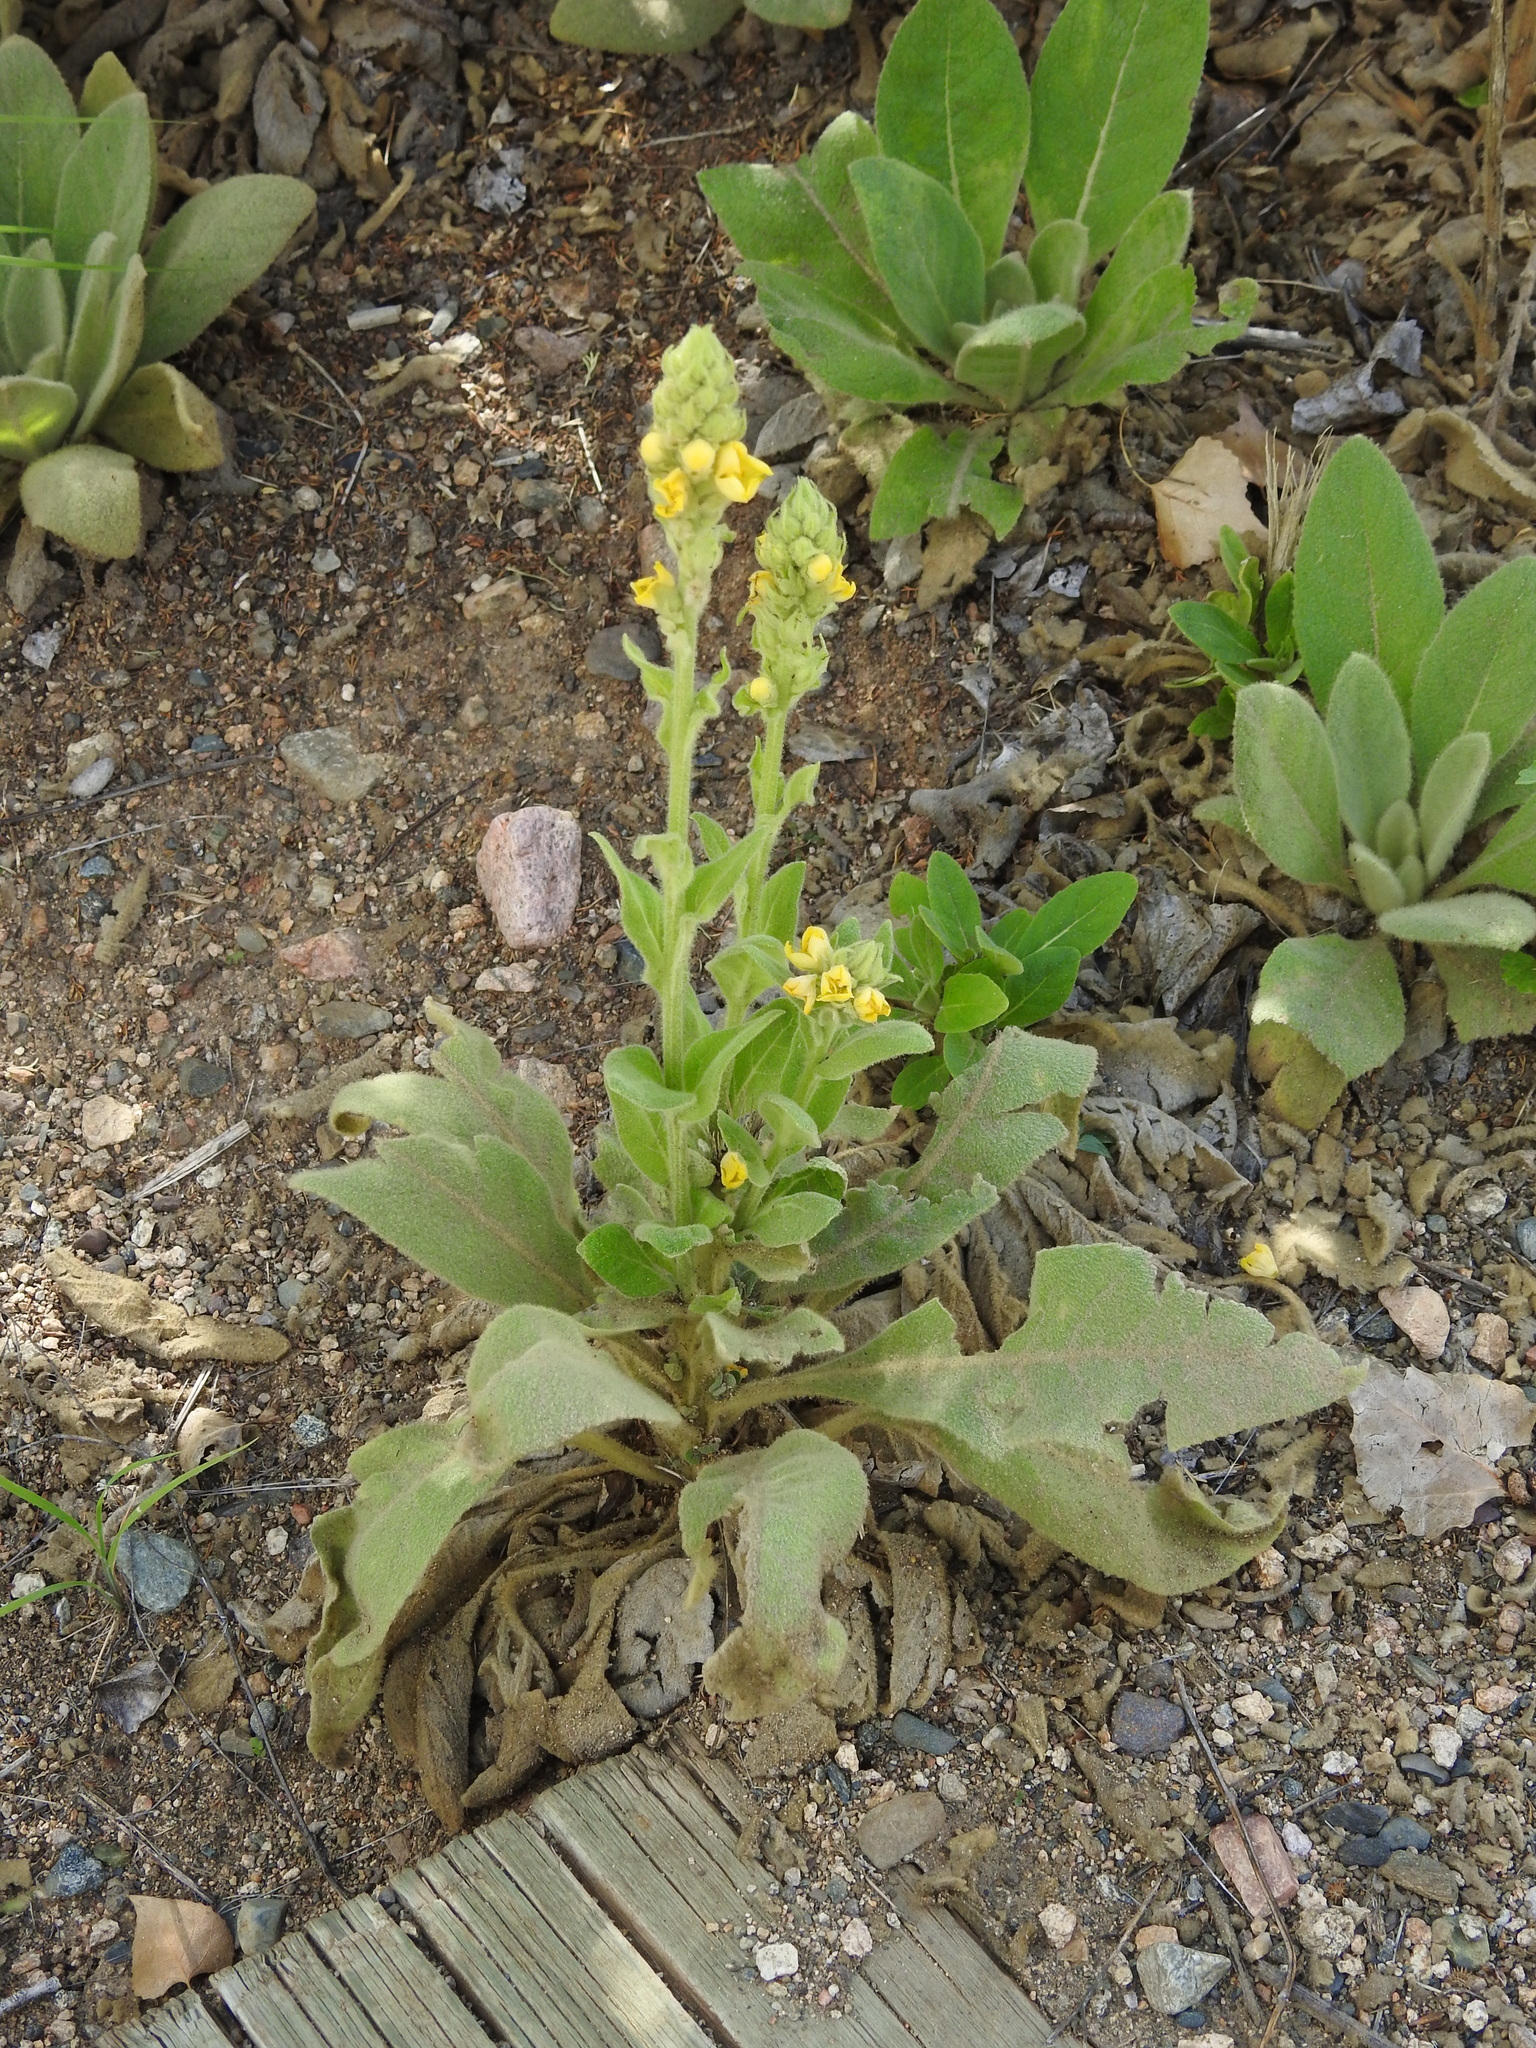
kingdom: Plantae
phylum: Tracheophyta
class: Magnoliopsida
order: Lamiales
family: Scrophulariaceae
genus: Verbascum
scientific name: Verbascum thapsus
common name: Common mullein
